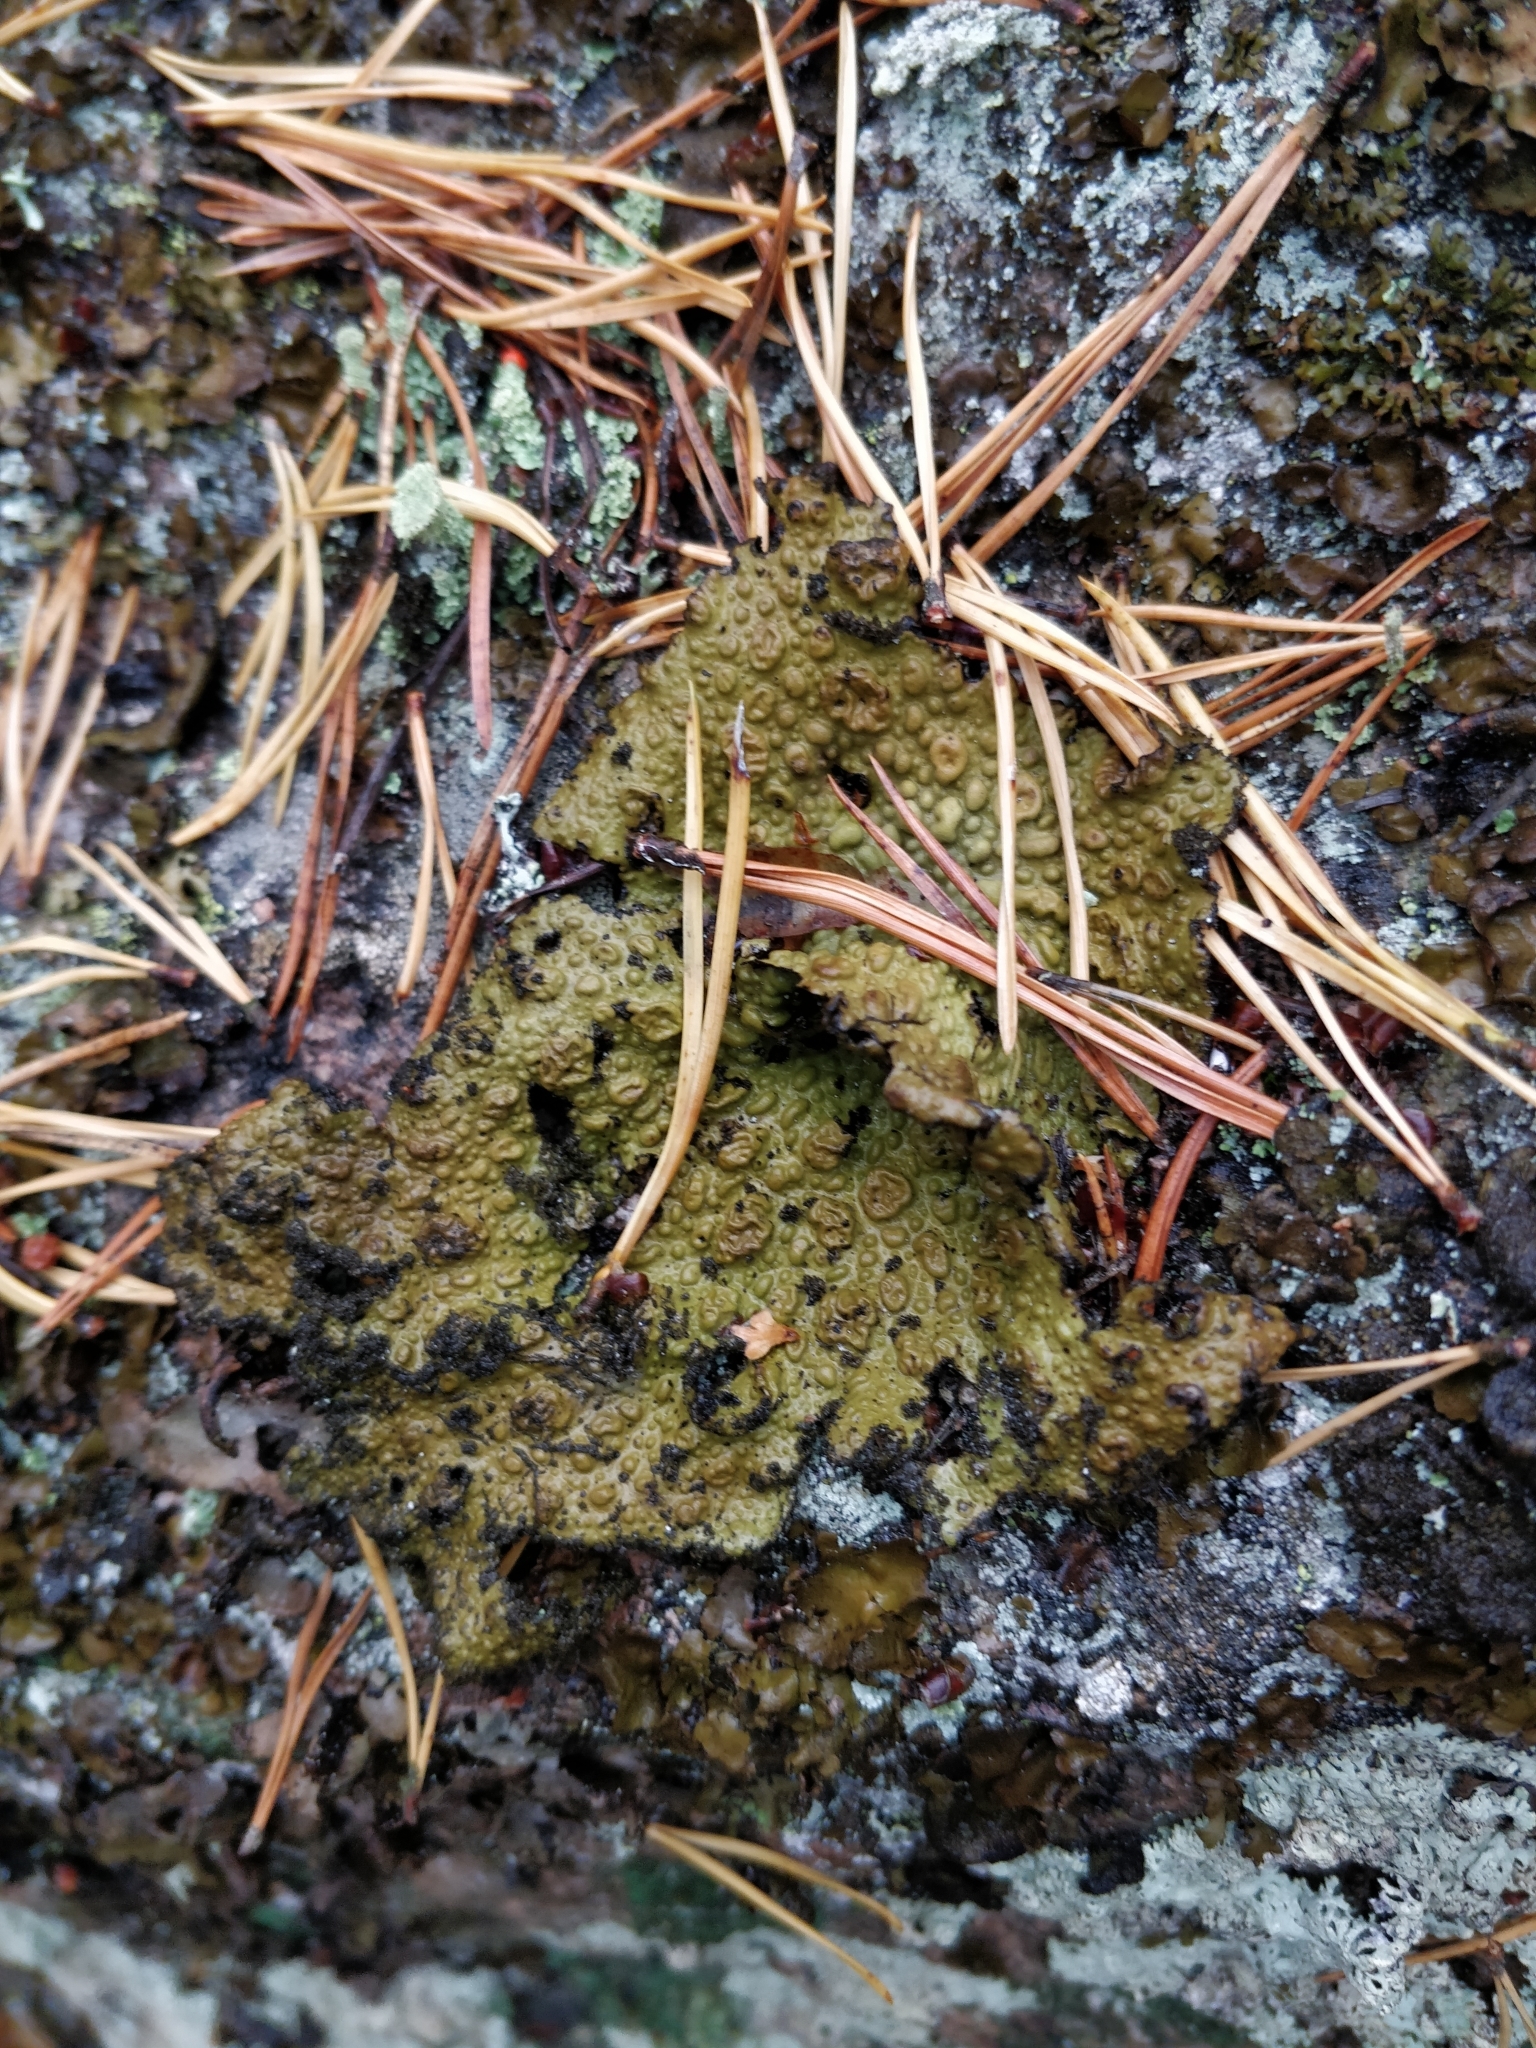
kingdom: Fungi
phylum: Ascomycota
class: Lecanoromycetes
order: Umbilicariales
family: Umbilicariaceae
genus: Lasallia
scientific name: Lasallia pustulata
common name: Blistered toadskin lichen
